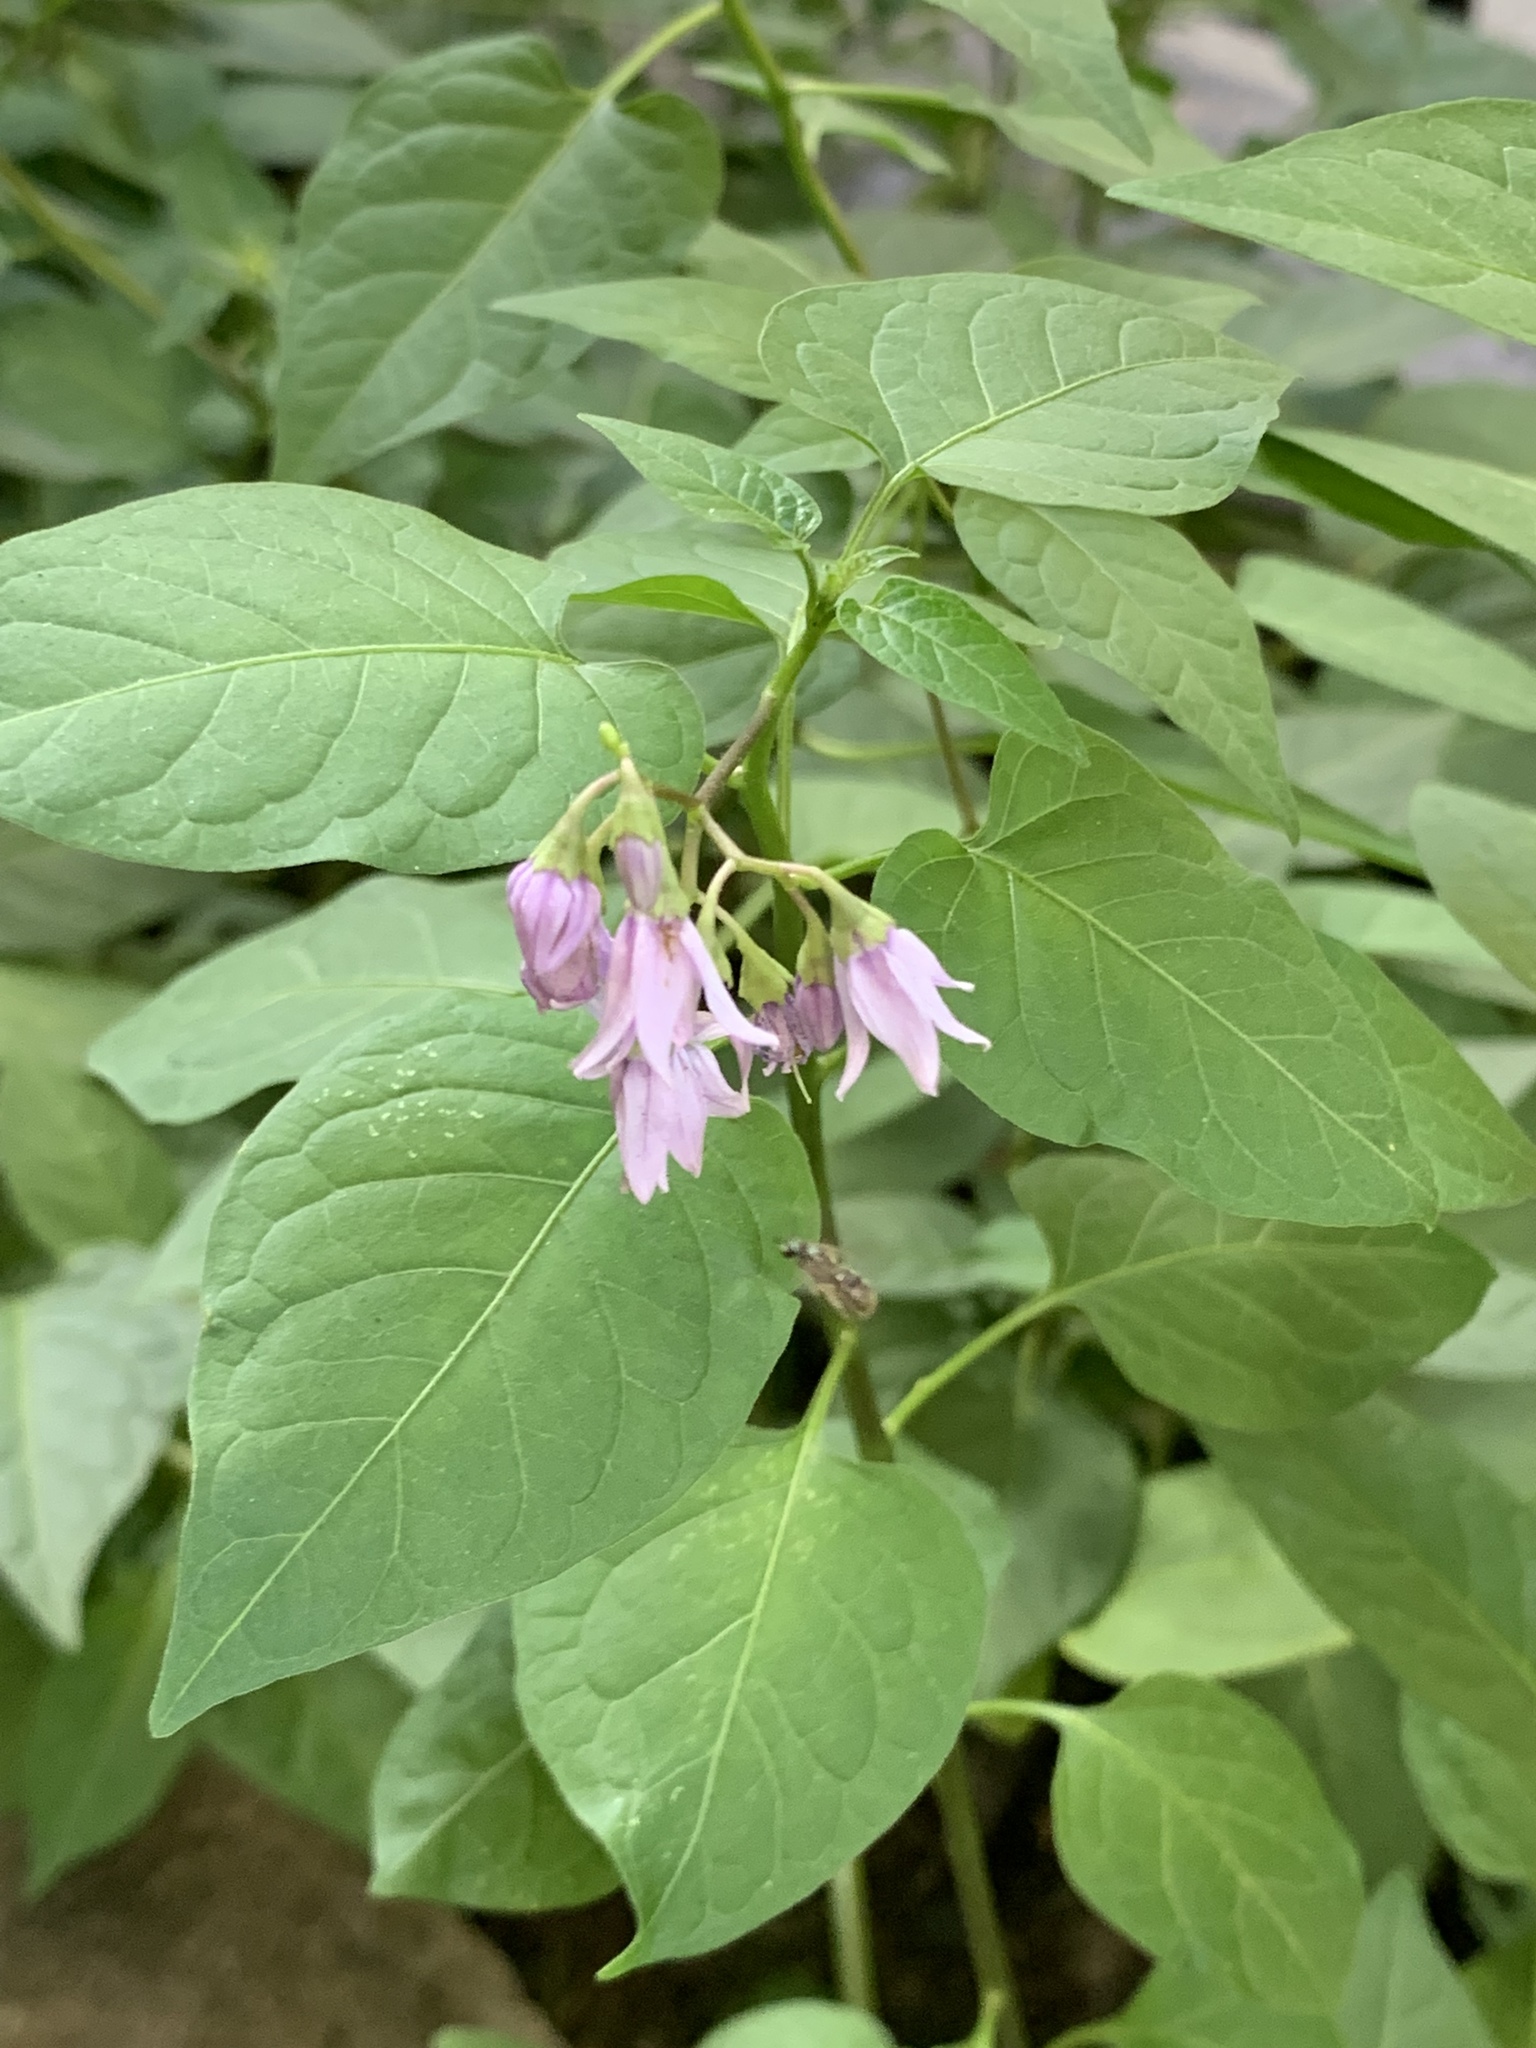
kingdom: Plantae
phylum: Tracheophyta
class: Magnoliopsida
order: Solanales
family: Solanaceae
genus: Solanum
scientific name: Solanum dulcamara
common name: Climbing nightshade
